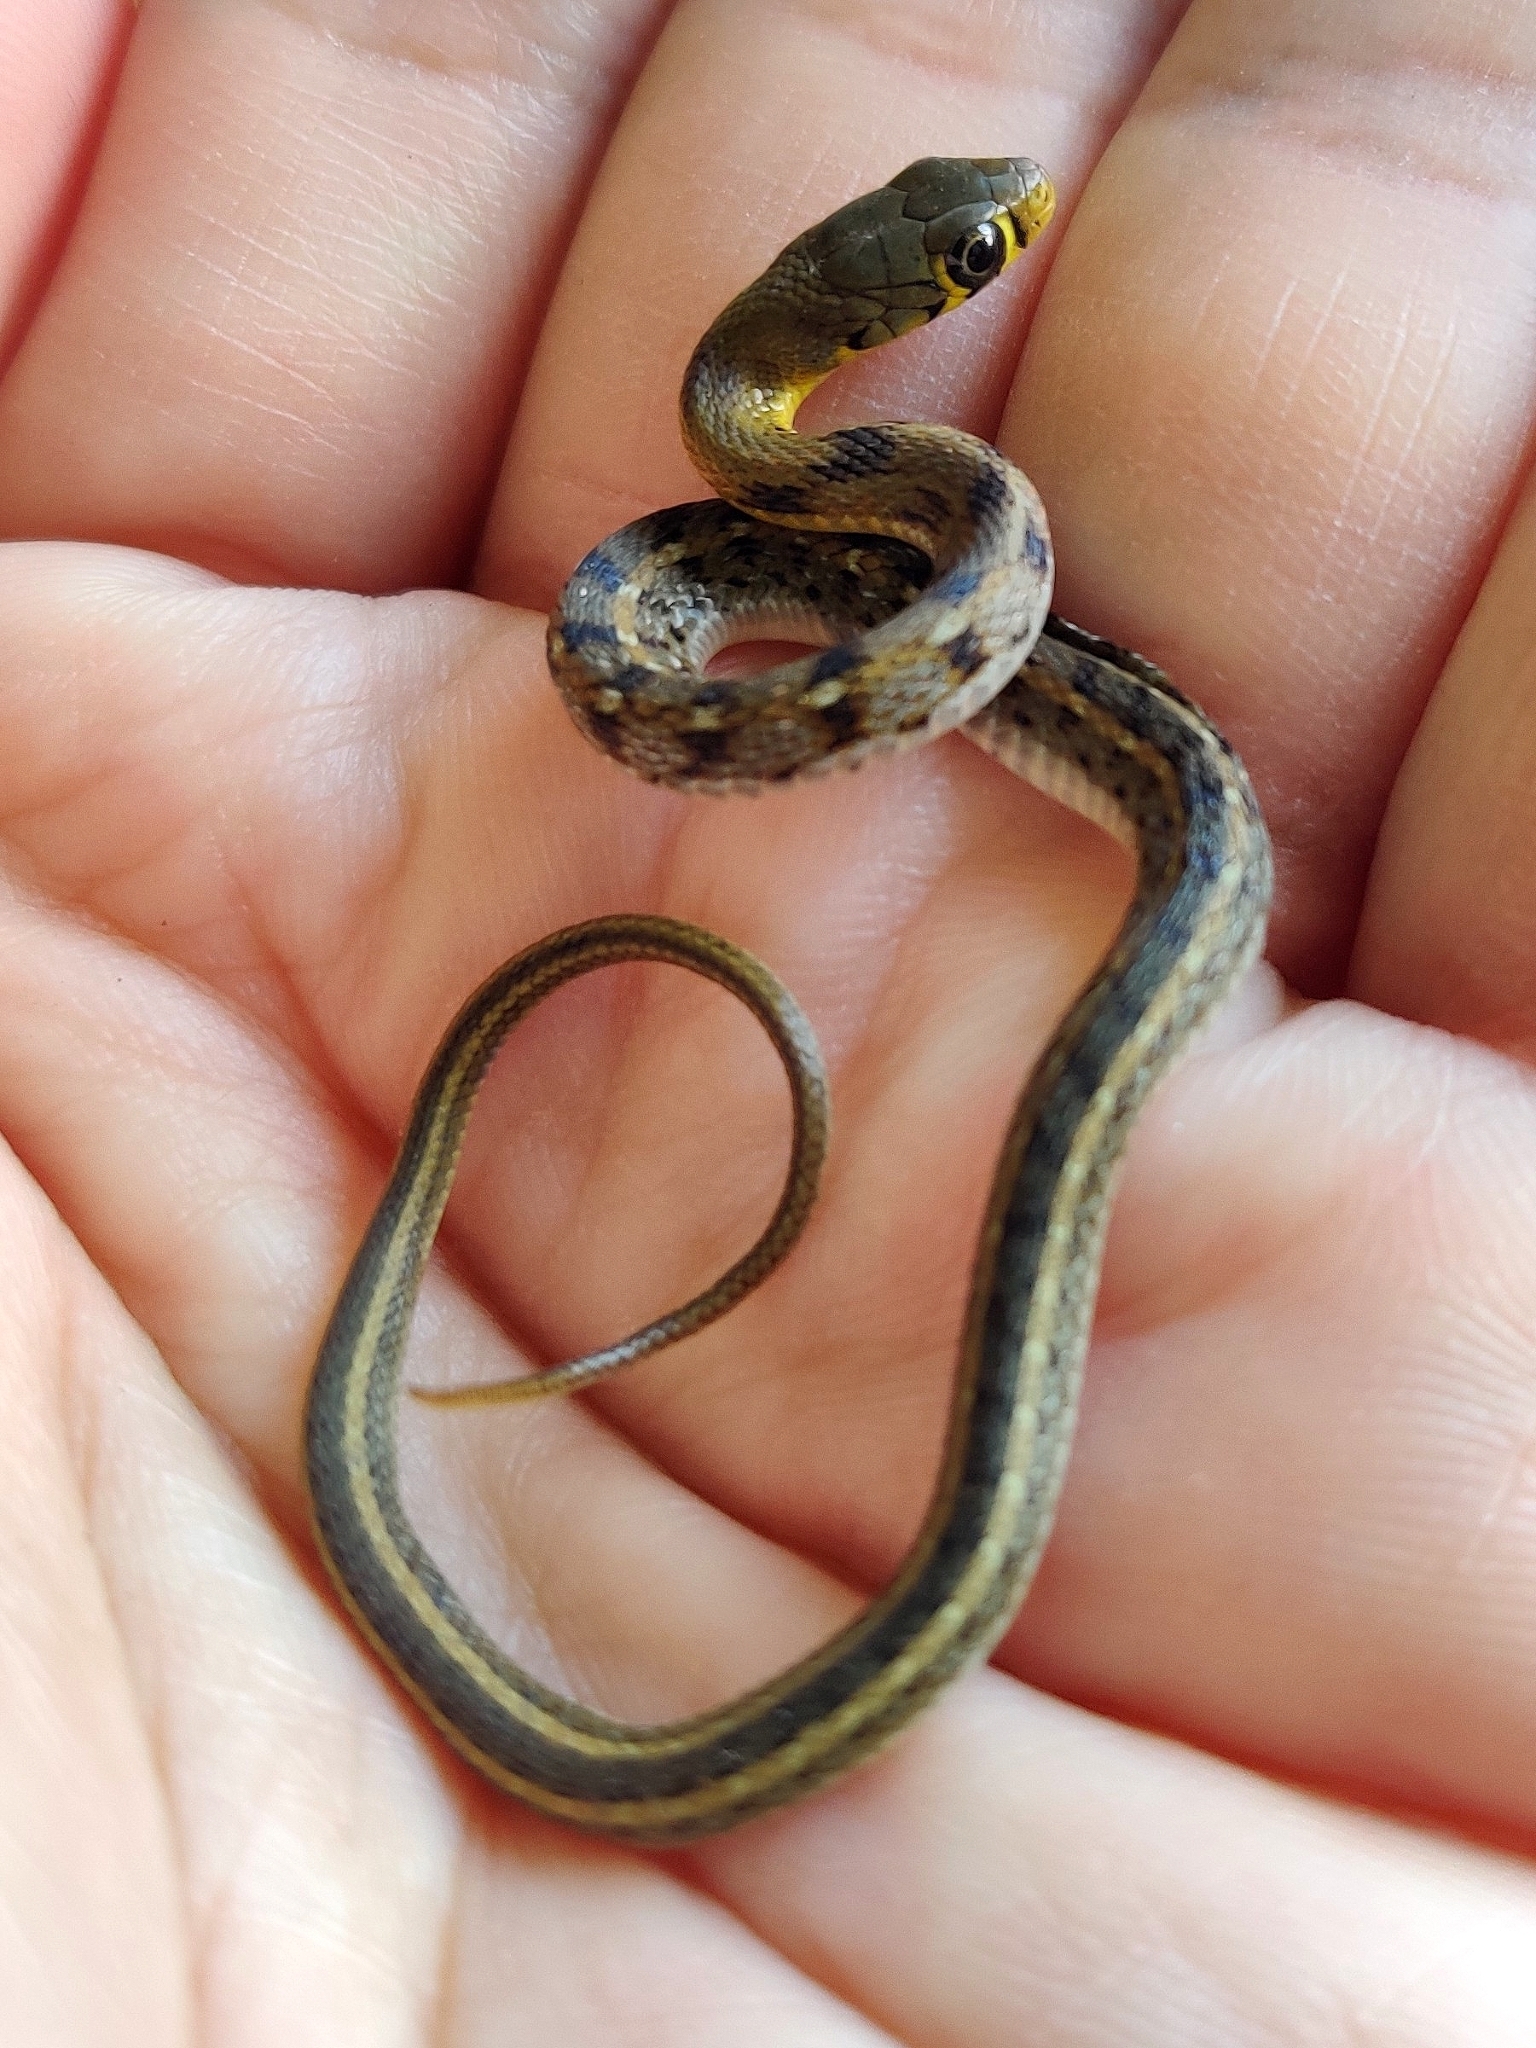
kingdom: Animalia
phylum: Chordata
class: Squamata
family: Colubridae
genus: Amphiesma
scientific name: Amphiesma stolatum
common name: Buff striped keelback
